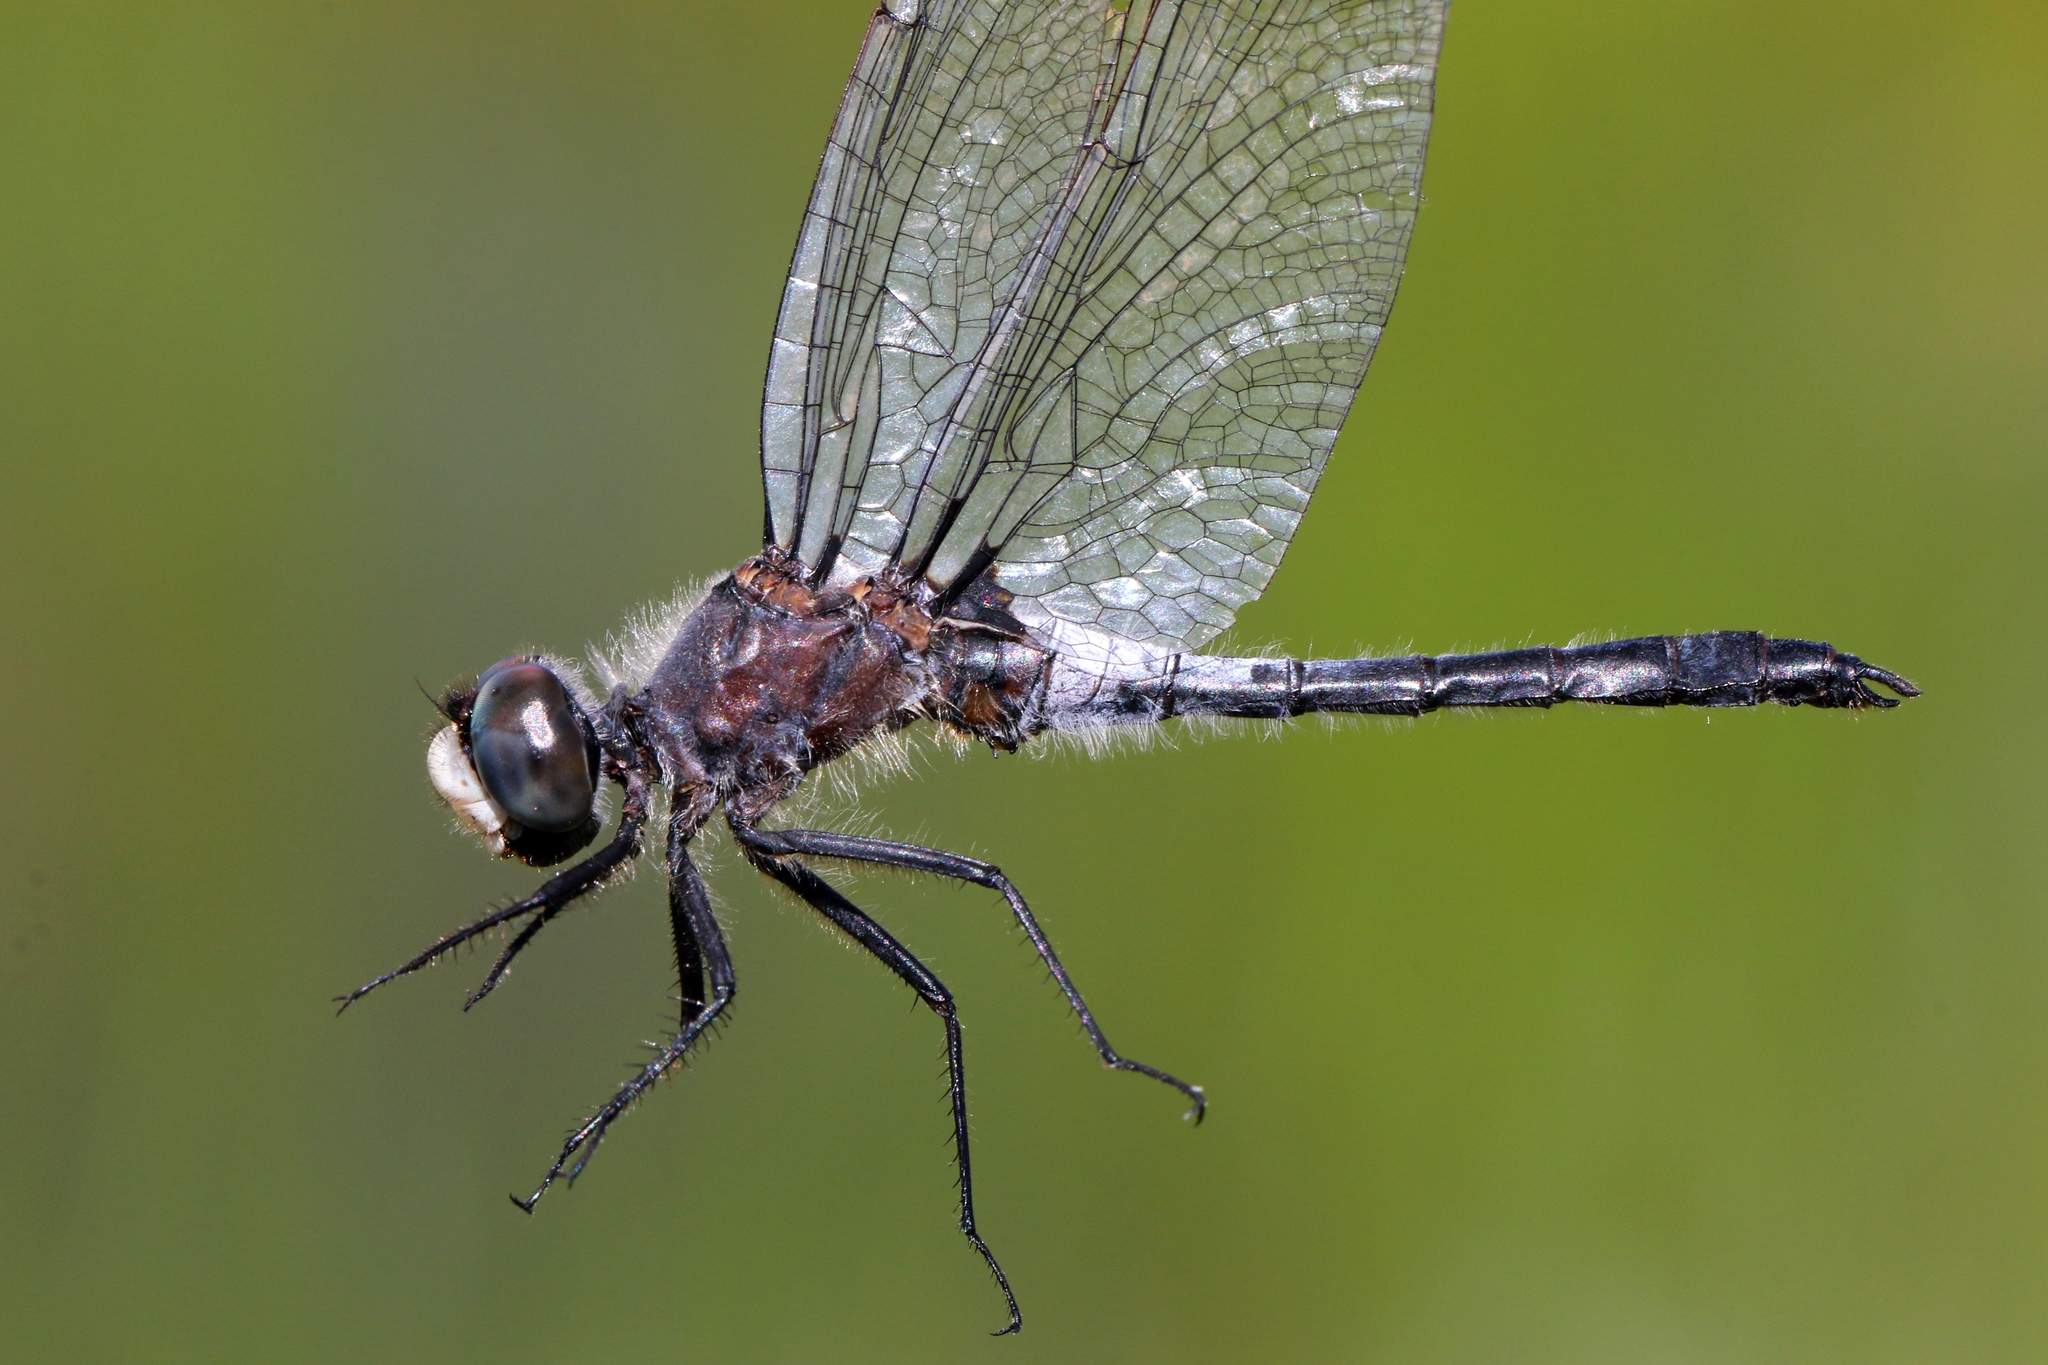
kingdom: Animalia
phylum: Arthropoda
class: Insecta
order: Odonata
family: Libellulidae
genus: Leucorrhinia
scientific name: Leucorrhinia frigida
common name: Frosted whiteface
